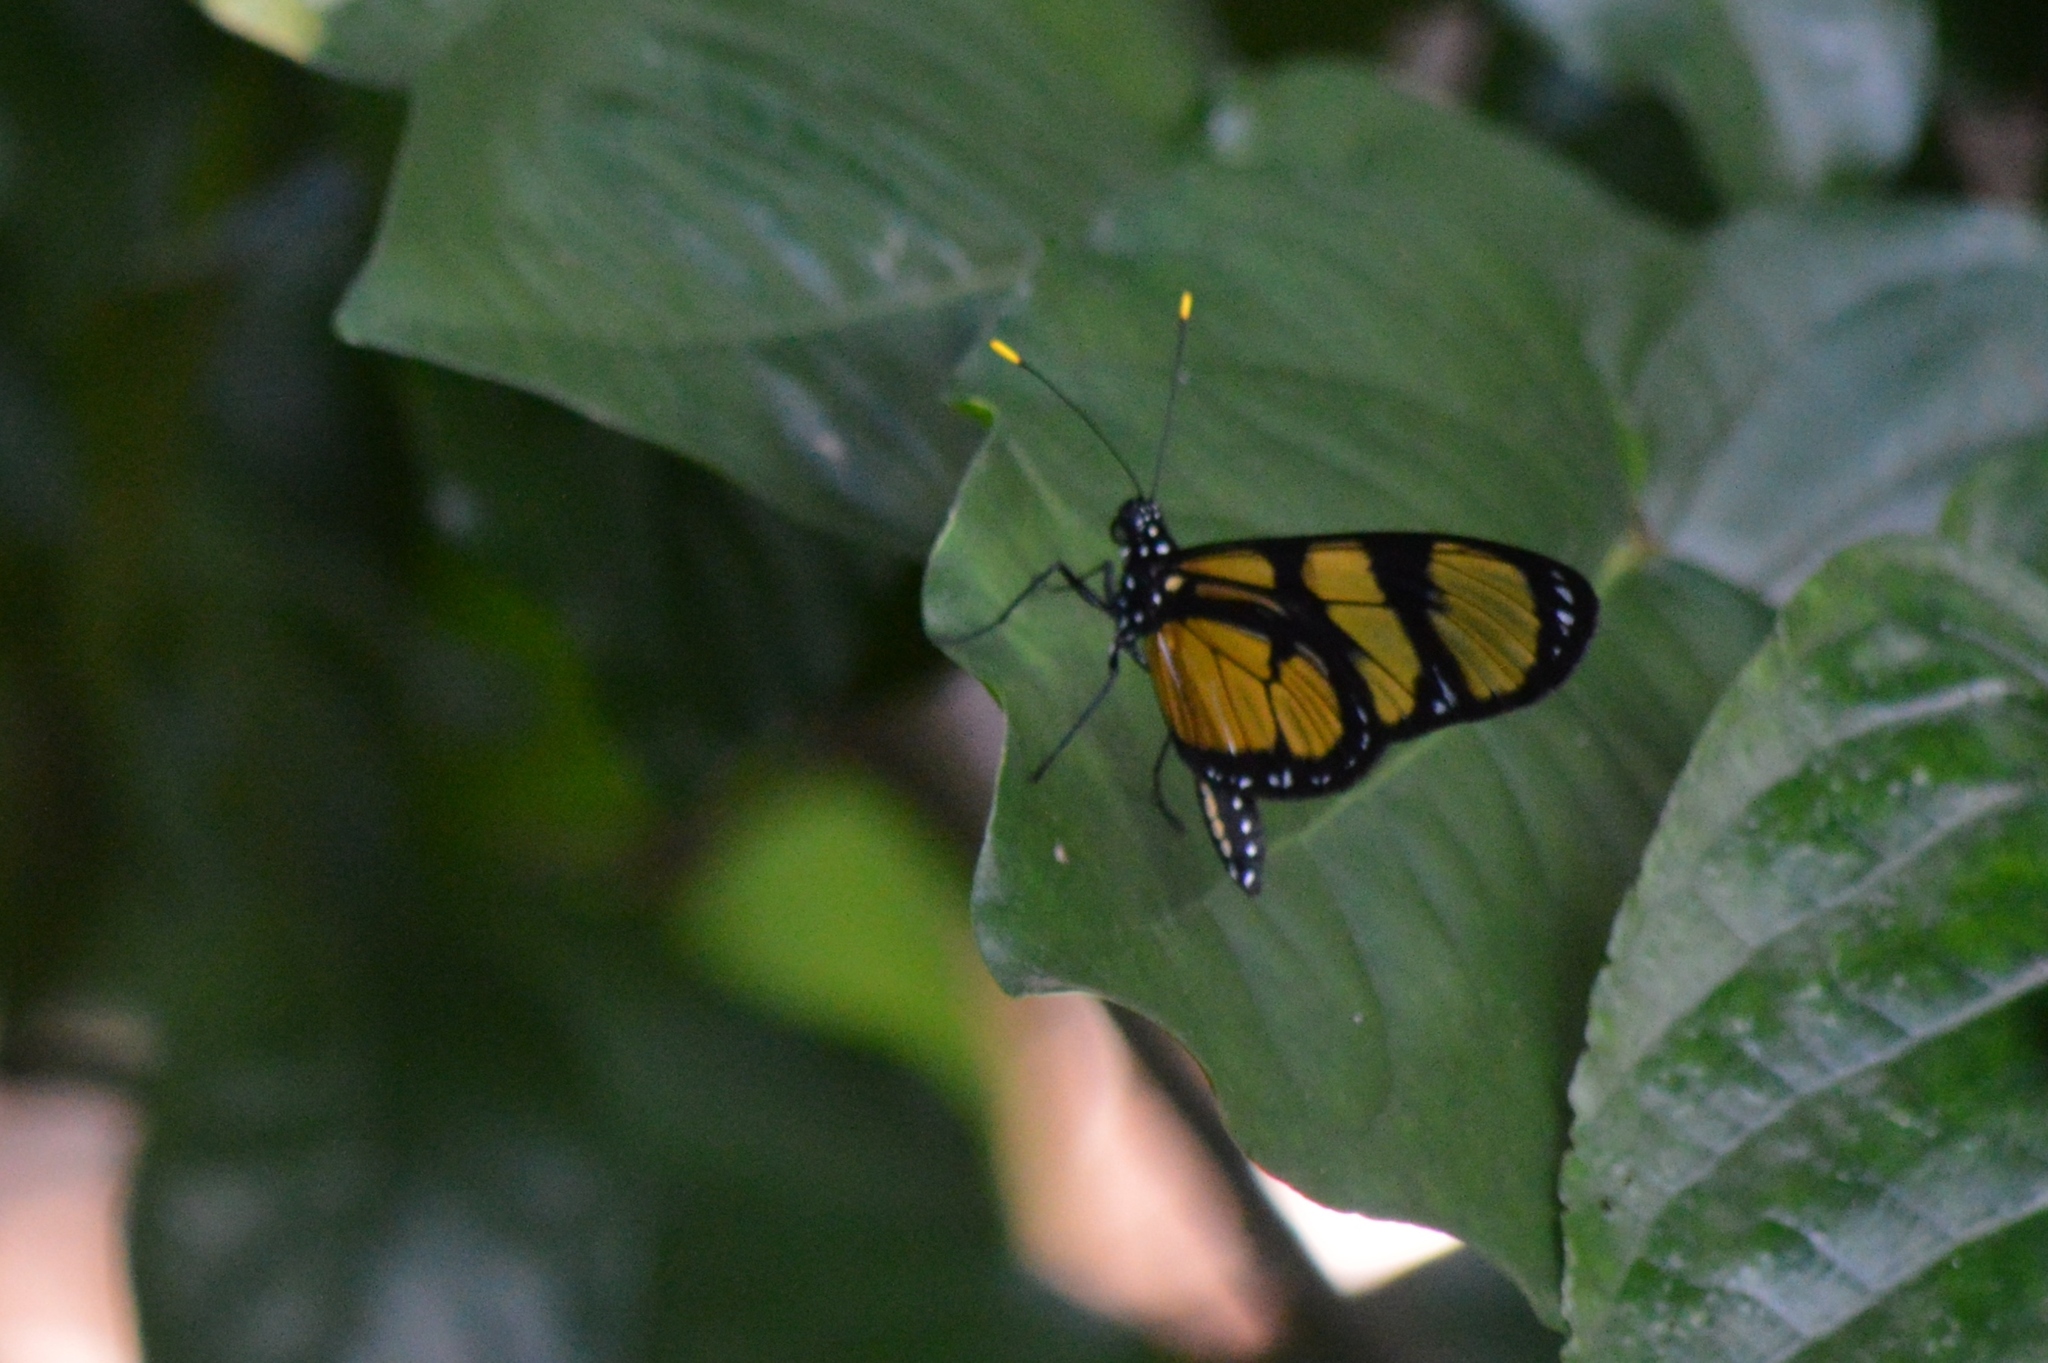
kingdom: Animalia
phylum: Arthropoda
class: Insecta
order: Lepidoptera
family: Nymphalidae
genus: Methona
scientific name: Methona themisto
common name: Themisto amberwing
